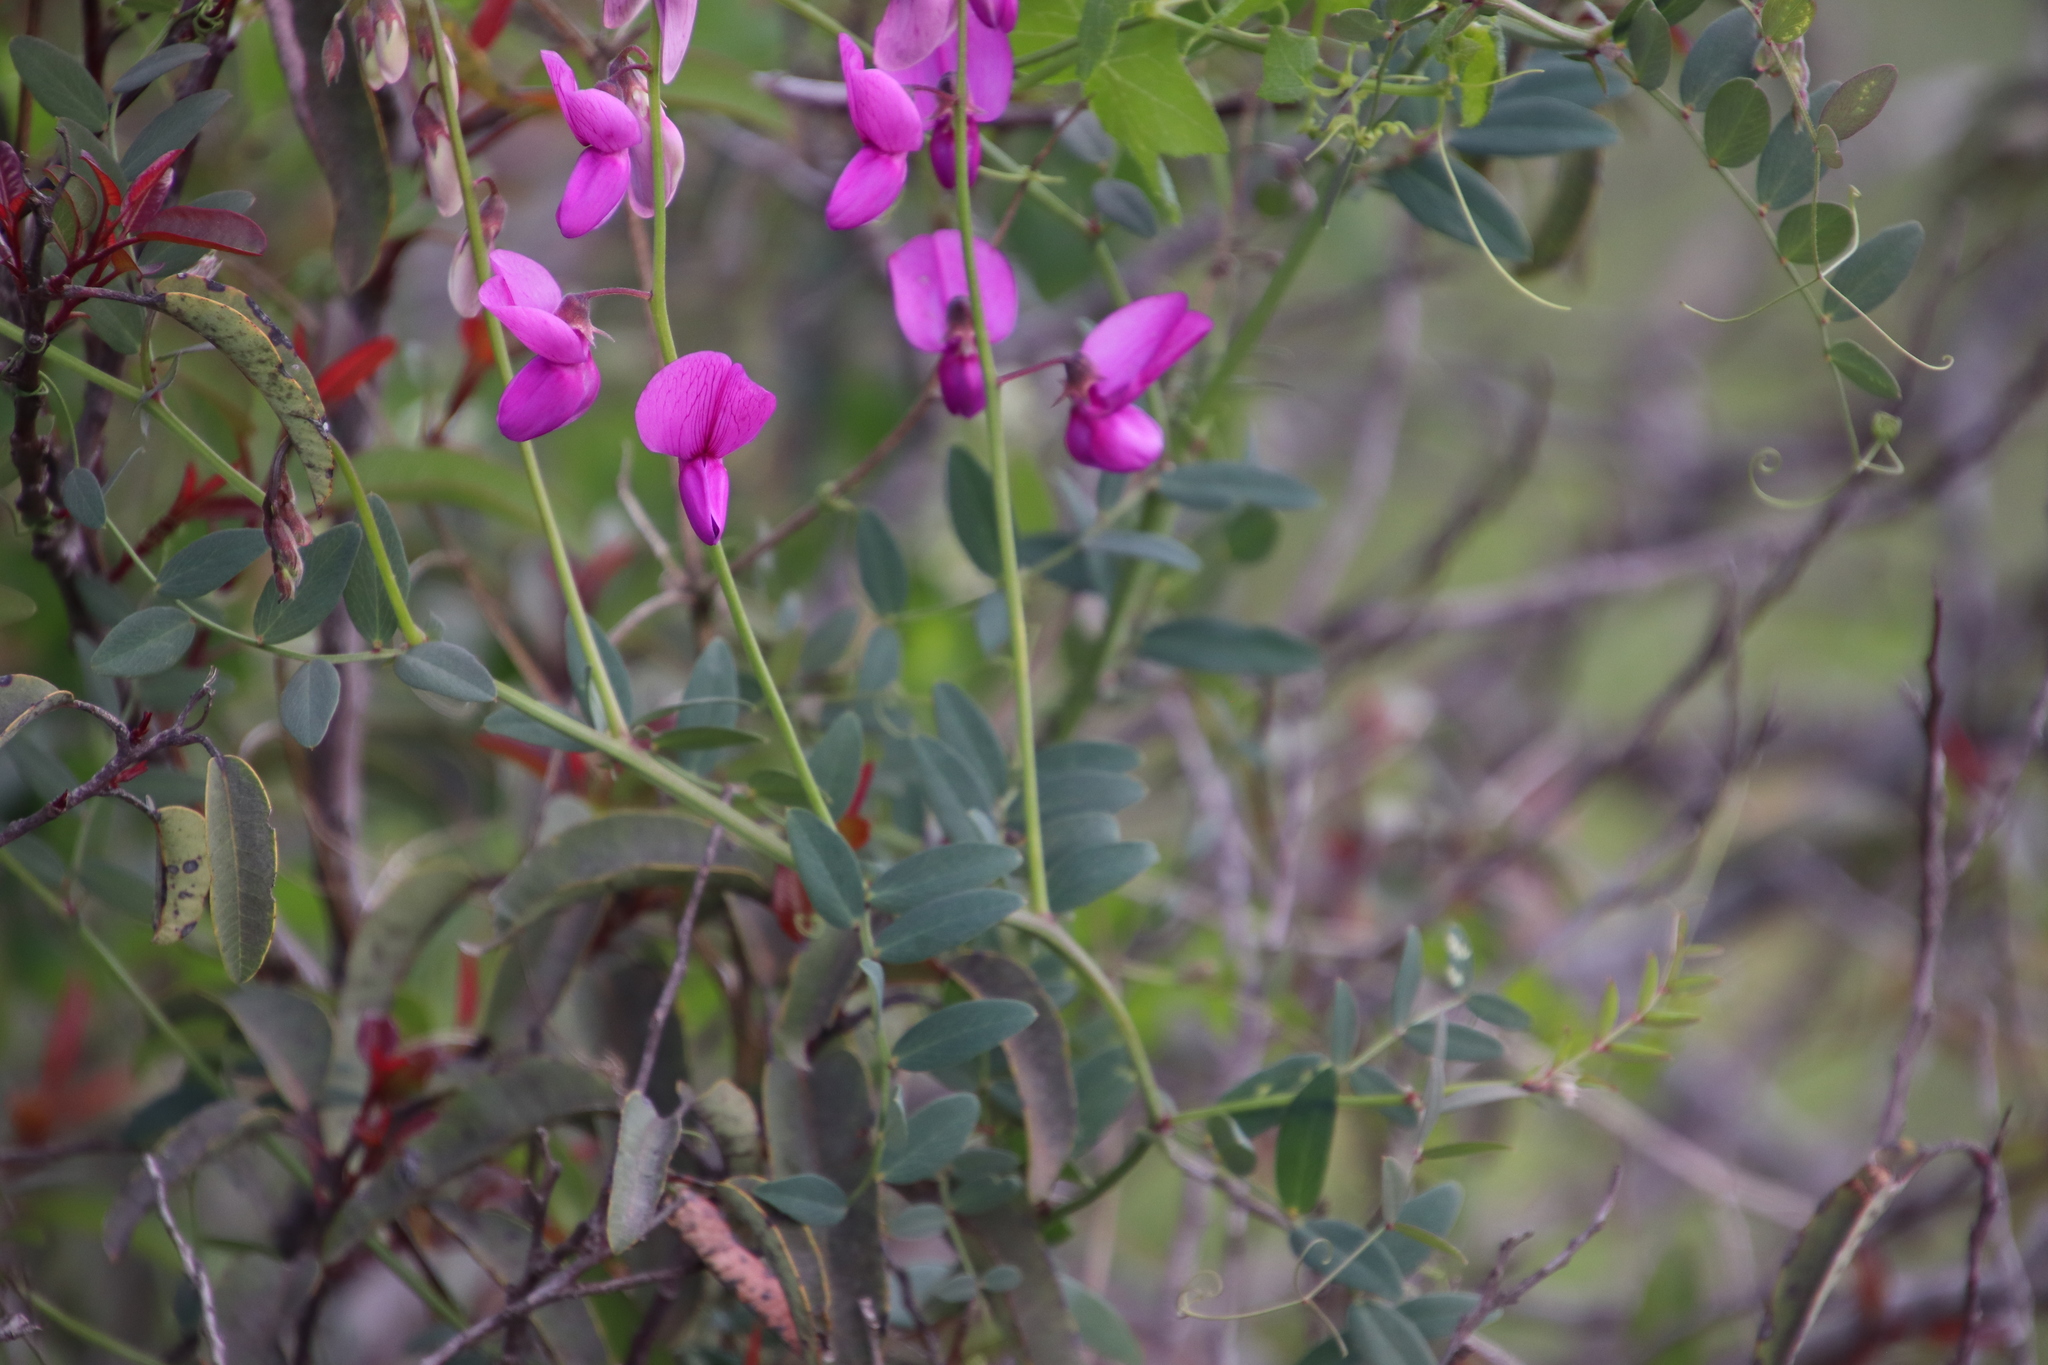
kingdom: Plantae
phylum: Tracheophyta
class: Magnoliopsida
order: Fabales
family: Fabaceae
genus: Lathyrus
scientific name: Lathyrus vestitus
